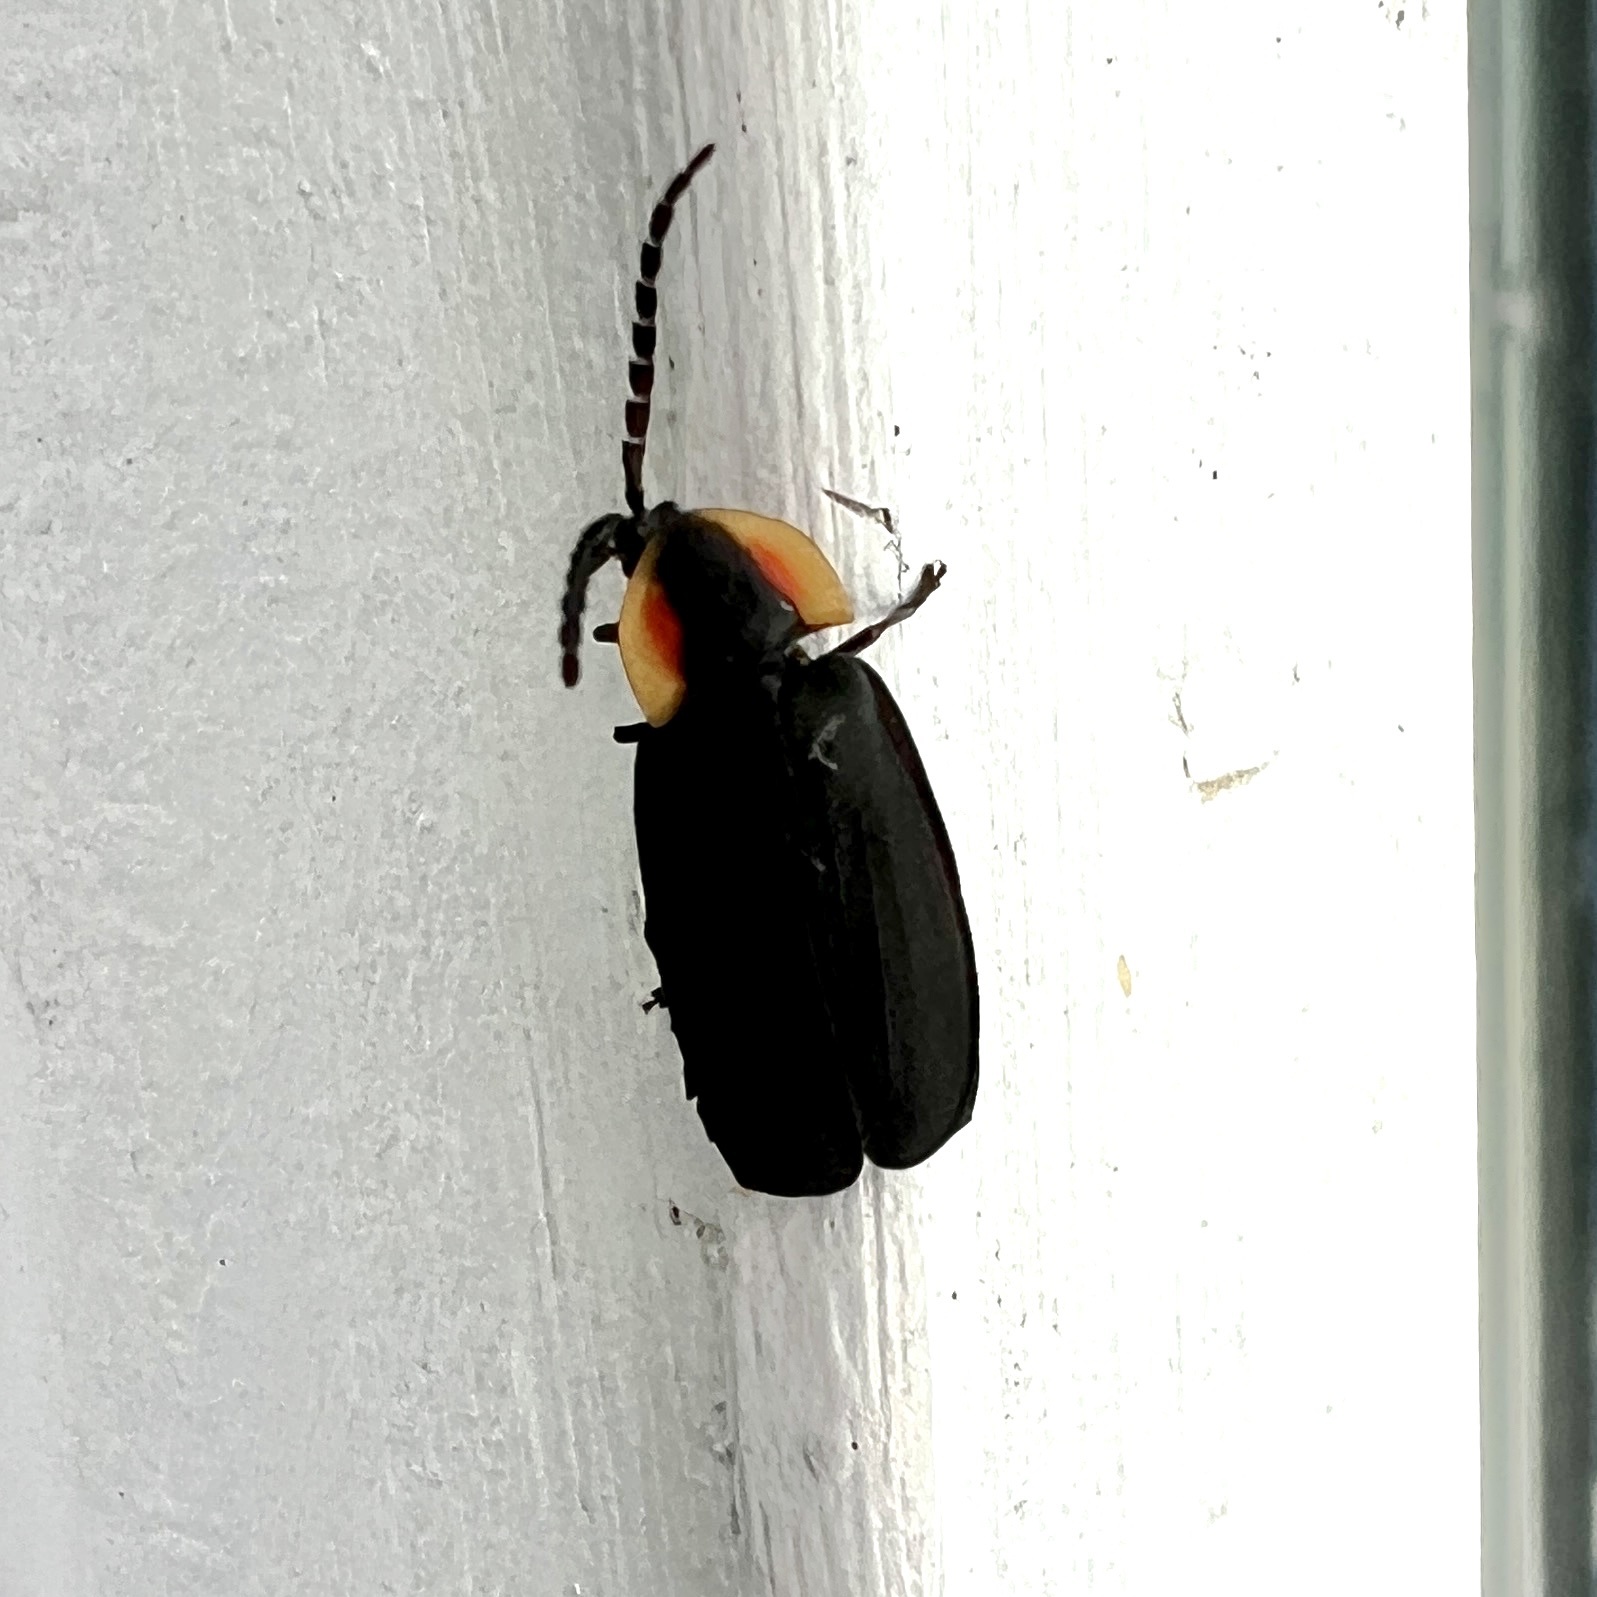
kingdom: Animalia
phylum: Arthropoda
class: Insecta
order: Coleoptera
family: Lampyridae
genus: Lucidota
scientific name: Lucidota atra
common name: Black firefly
